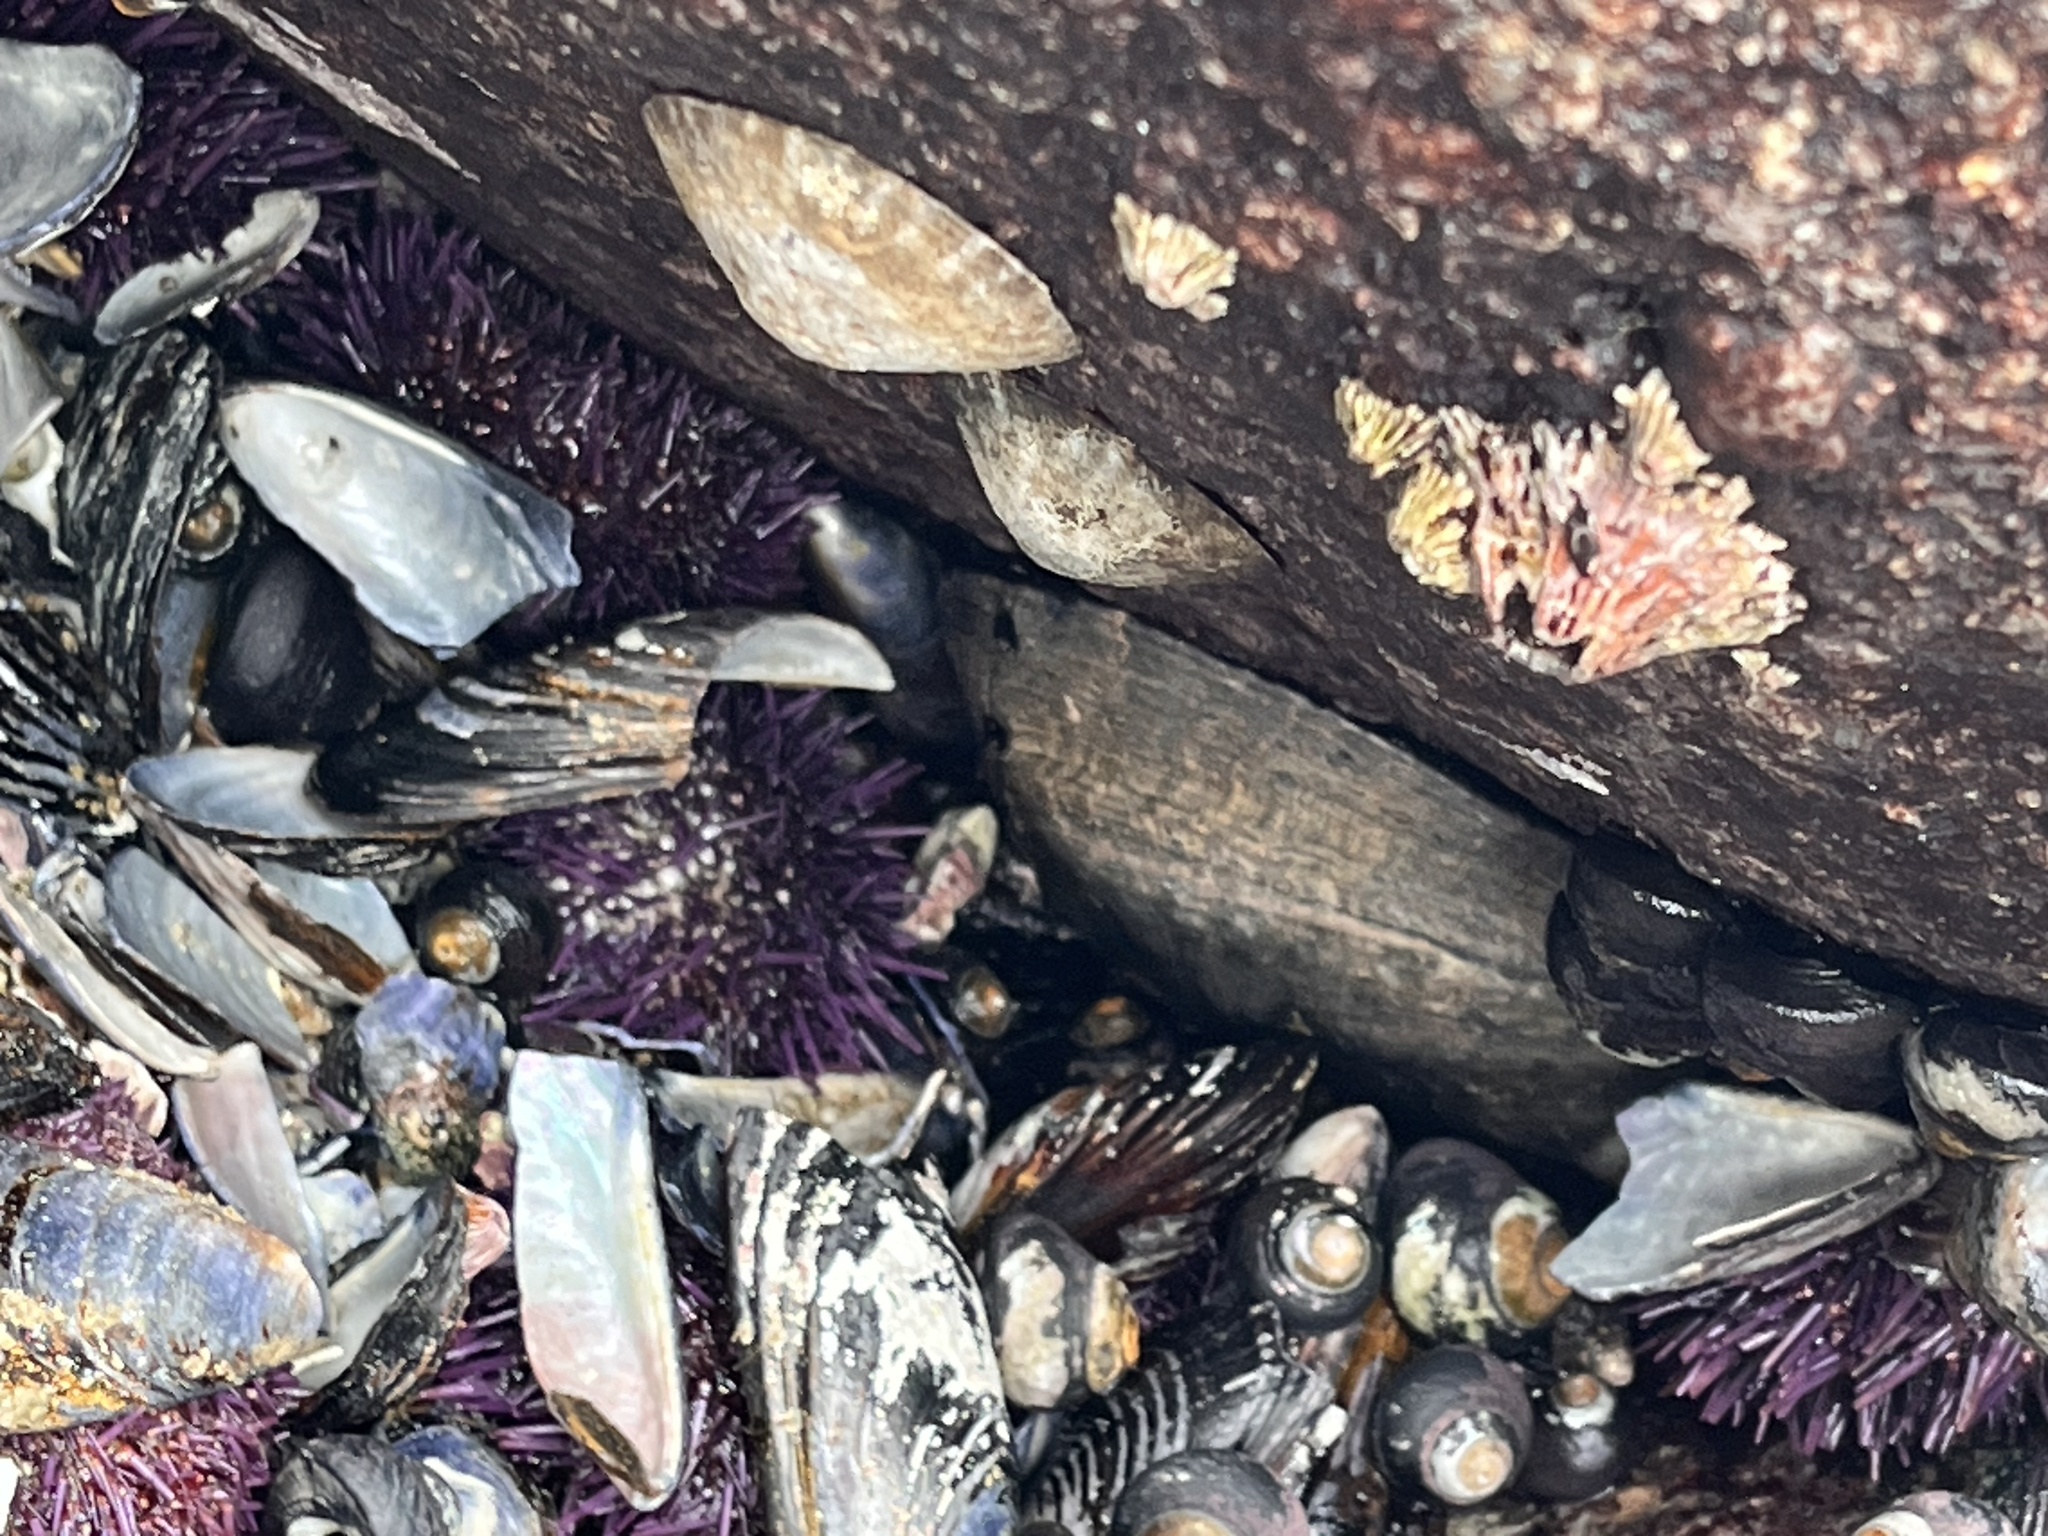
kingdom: Animalia
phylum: Mollusca
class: Gastropoda
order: Lepetellida
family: Haliotidae
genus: Haliotis
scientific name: Haliotis cracherodii
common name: Black abalone
